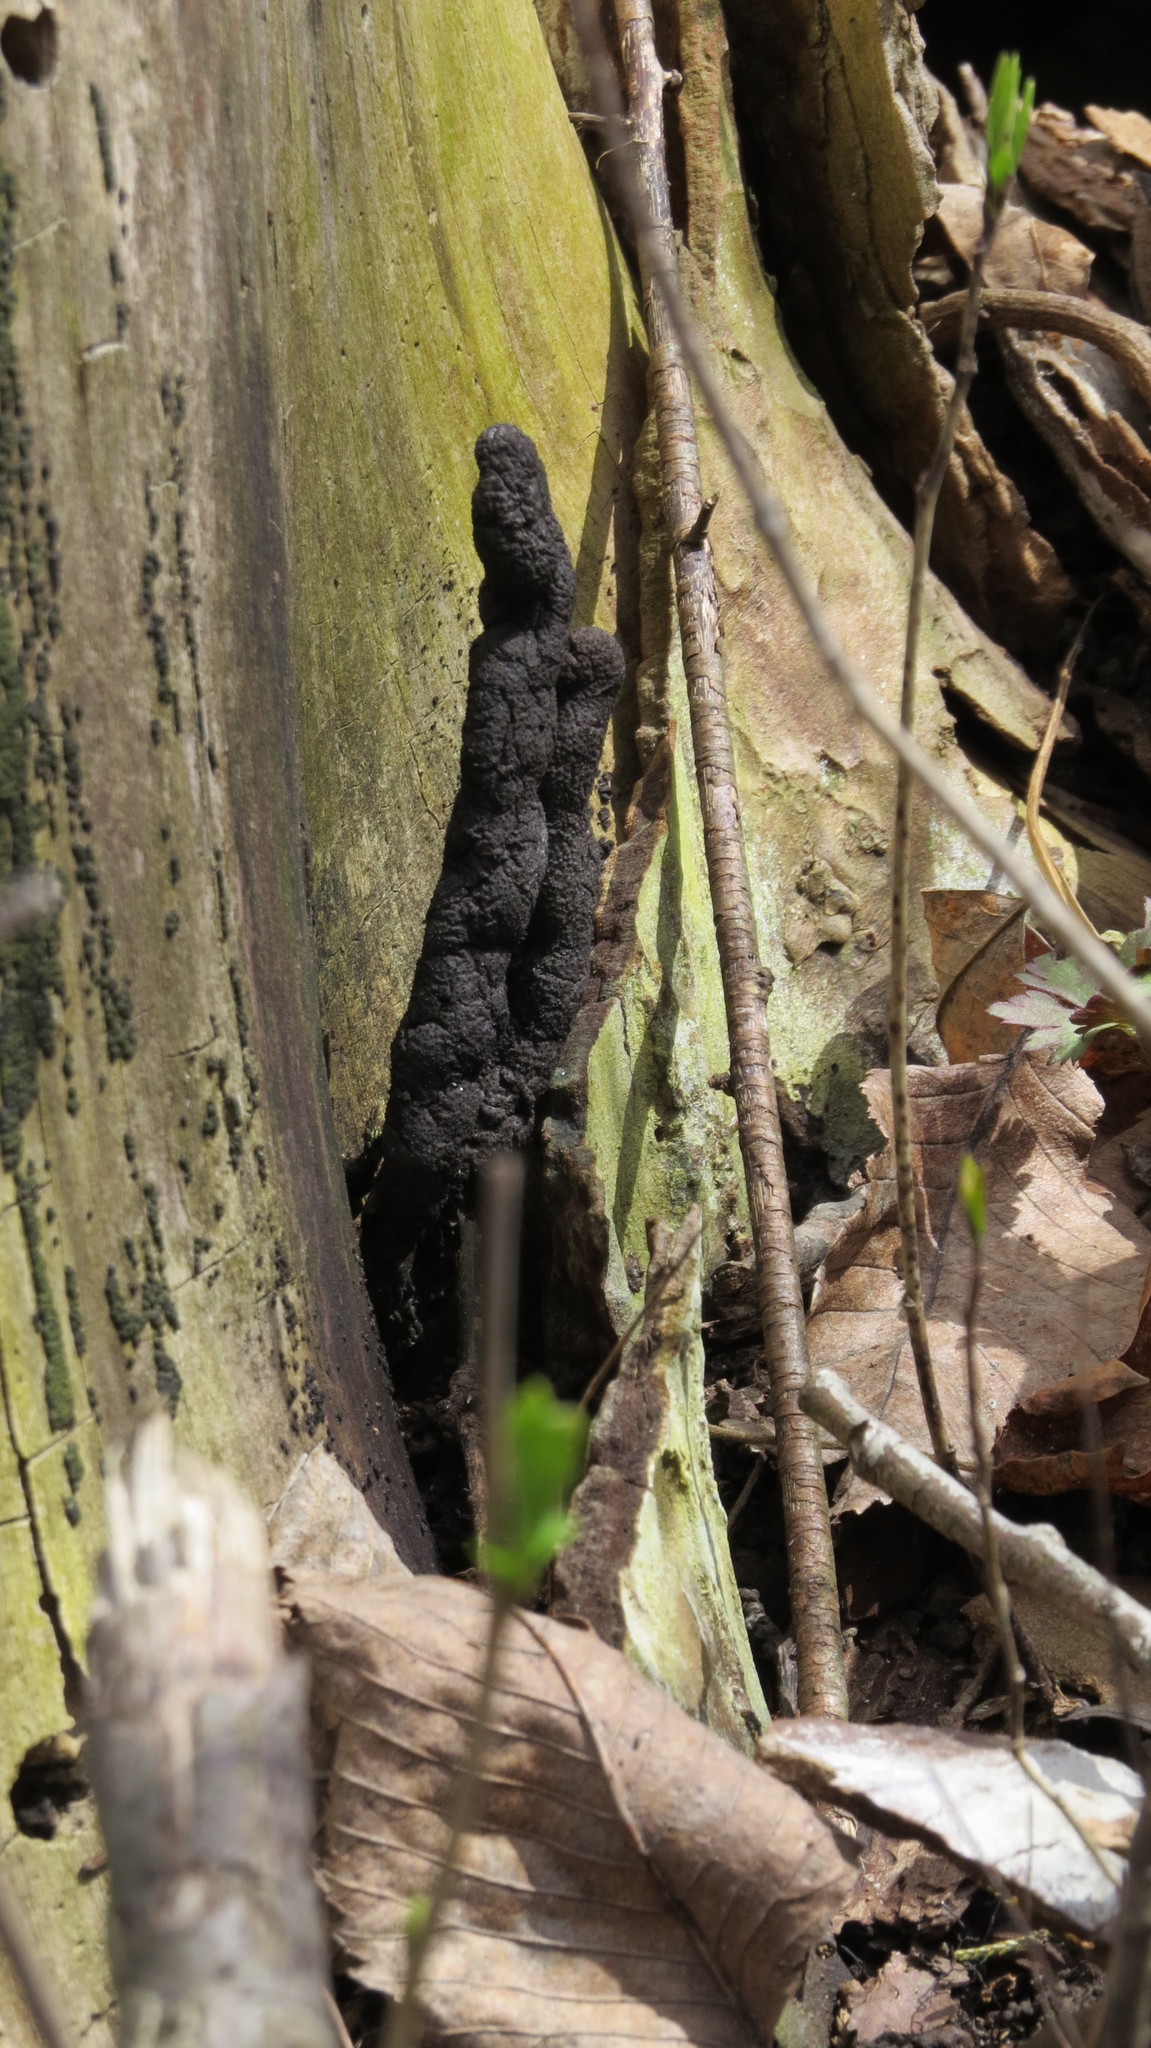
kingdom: Fungi
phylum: Ascomycota
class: Dothideomycetes
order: Venturiales
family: Venturiaceae
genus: Apiosporina
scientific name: Apiosporina morbosa
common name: Black knot
